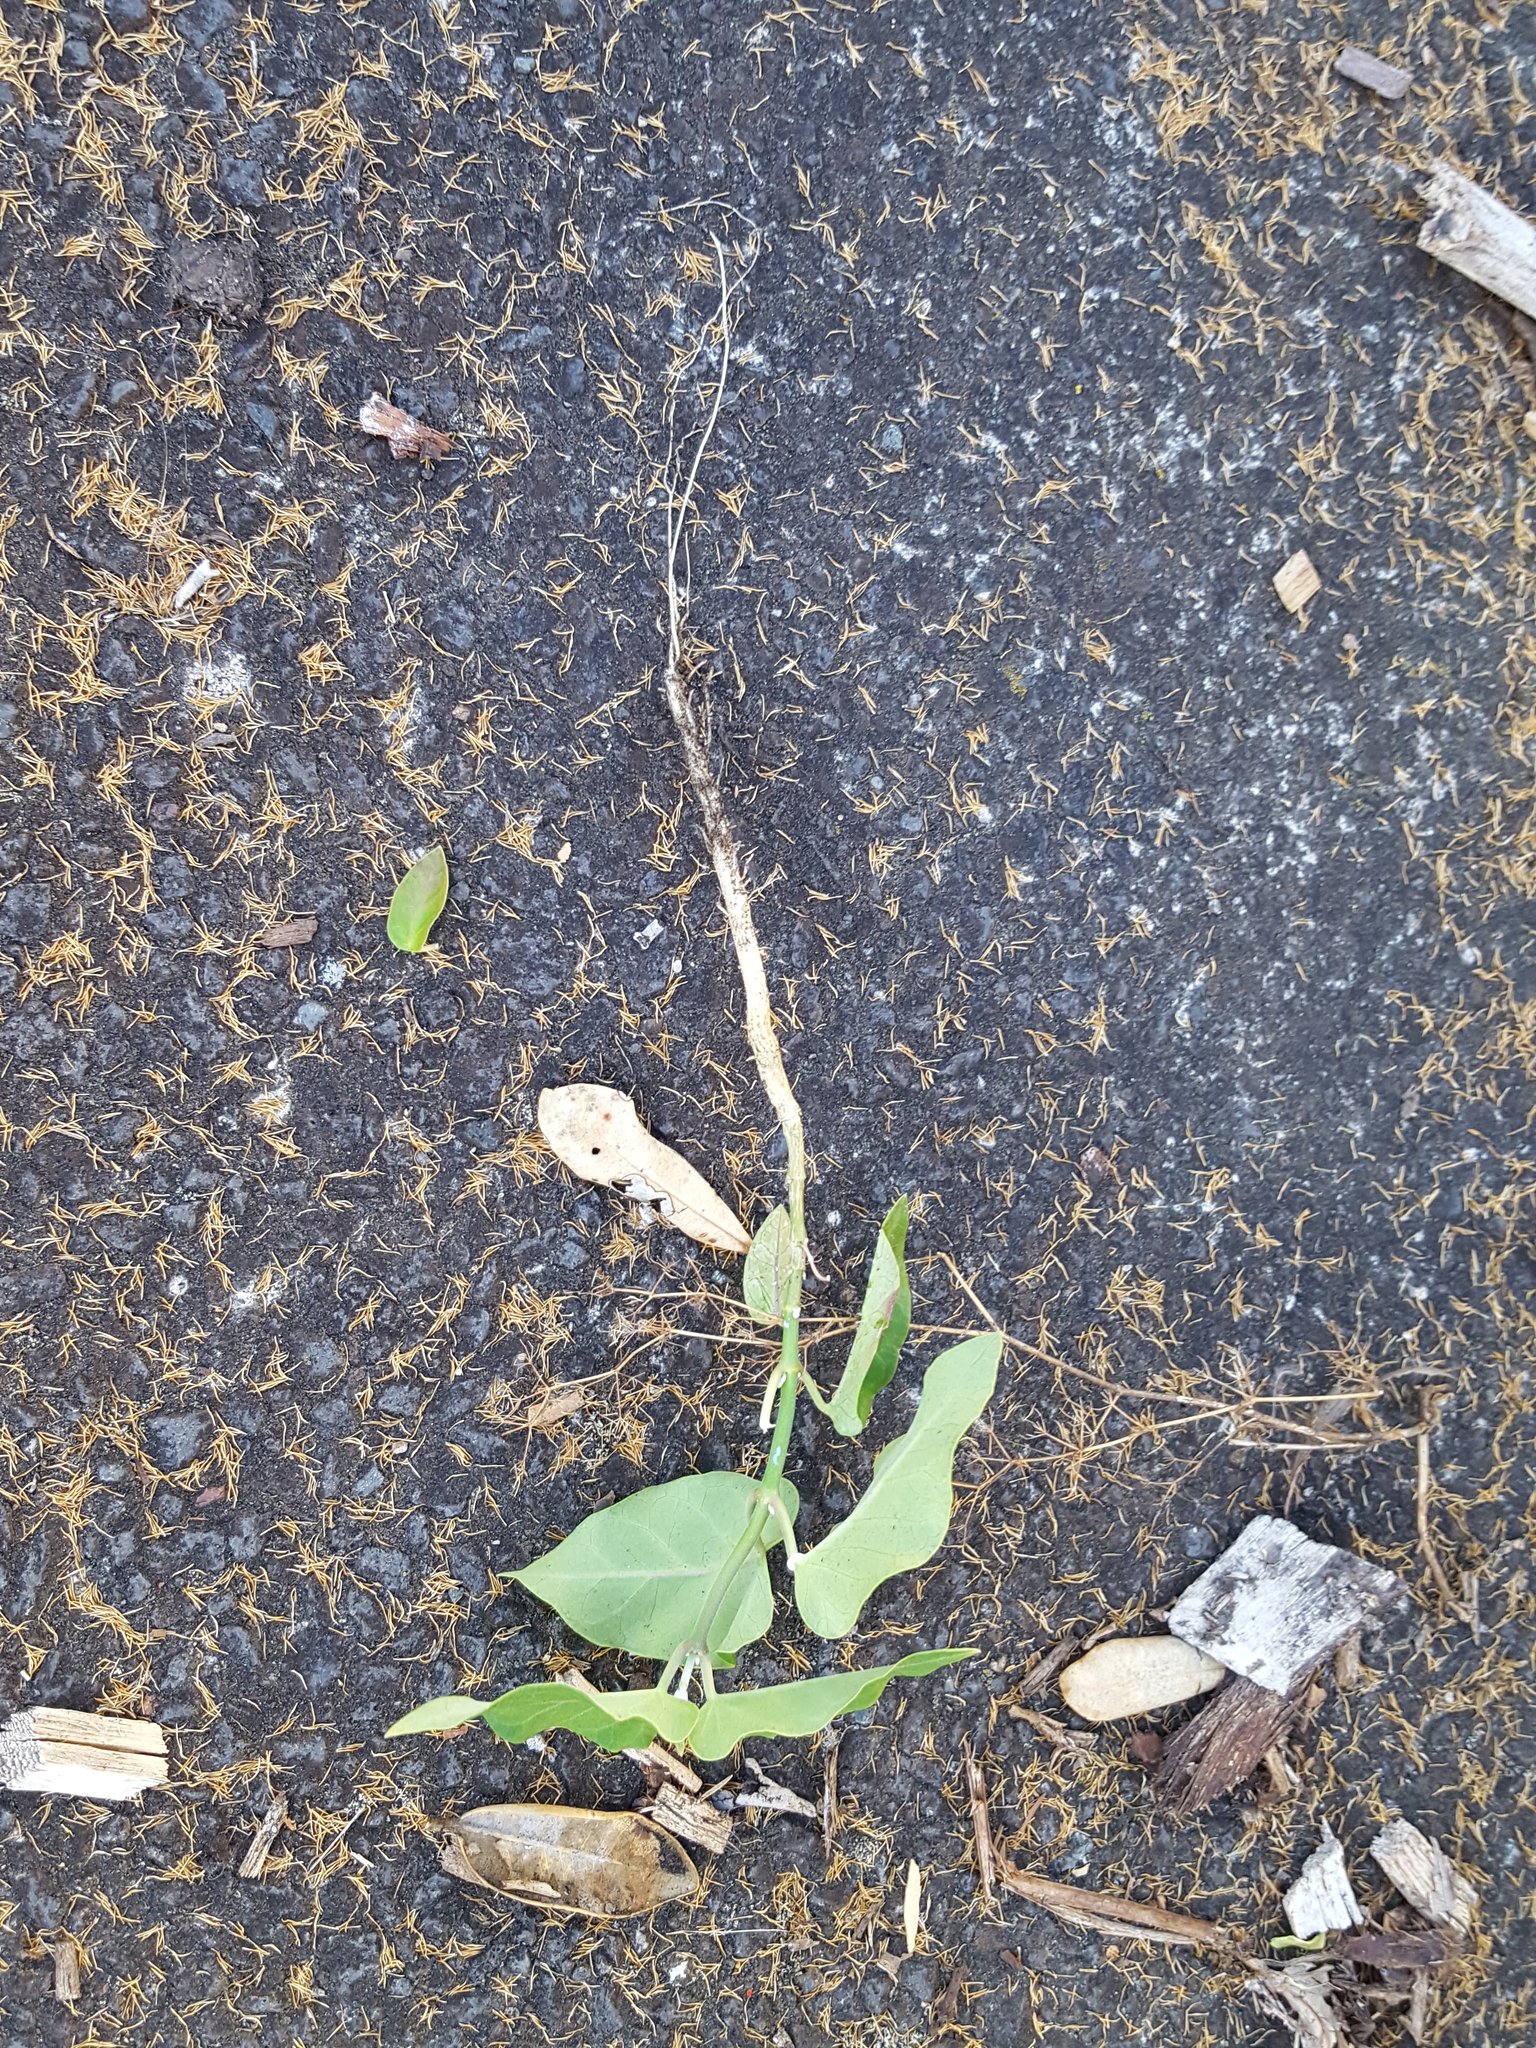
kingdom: Plantae
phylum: Tracheophyta
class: Magnoliopsida
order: Gentianales
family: Apocynaceae
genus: Araujia
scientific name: Araujia sericifera
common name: White bladderflower
